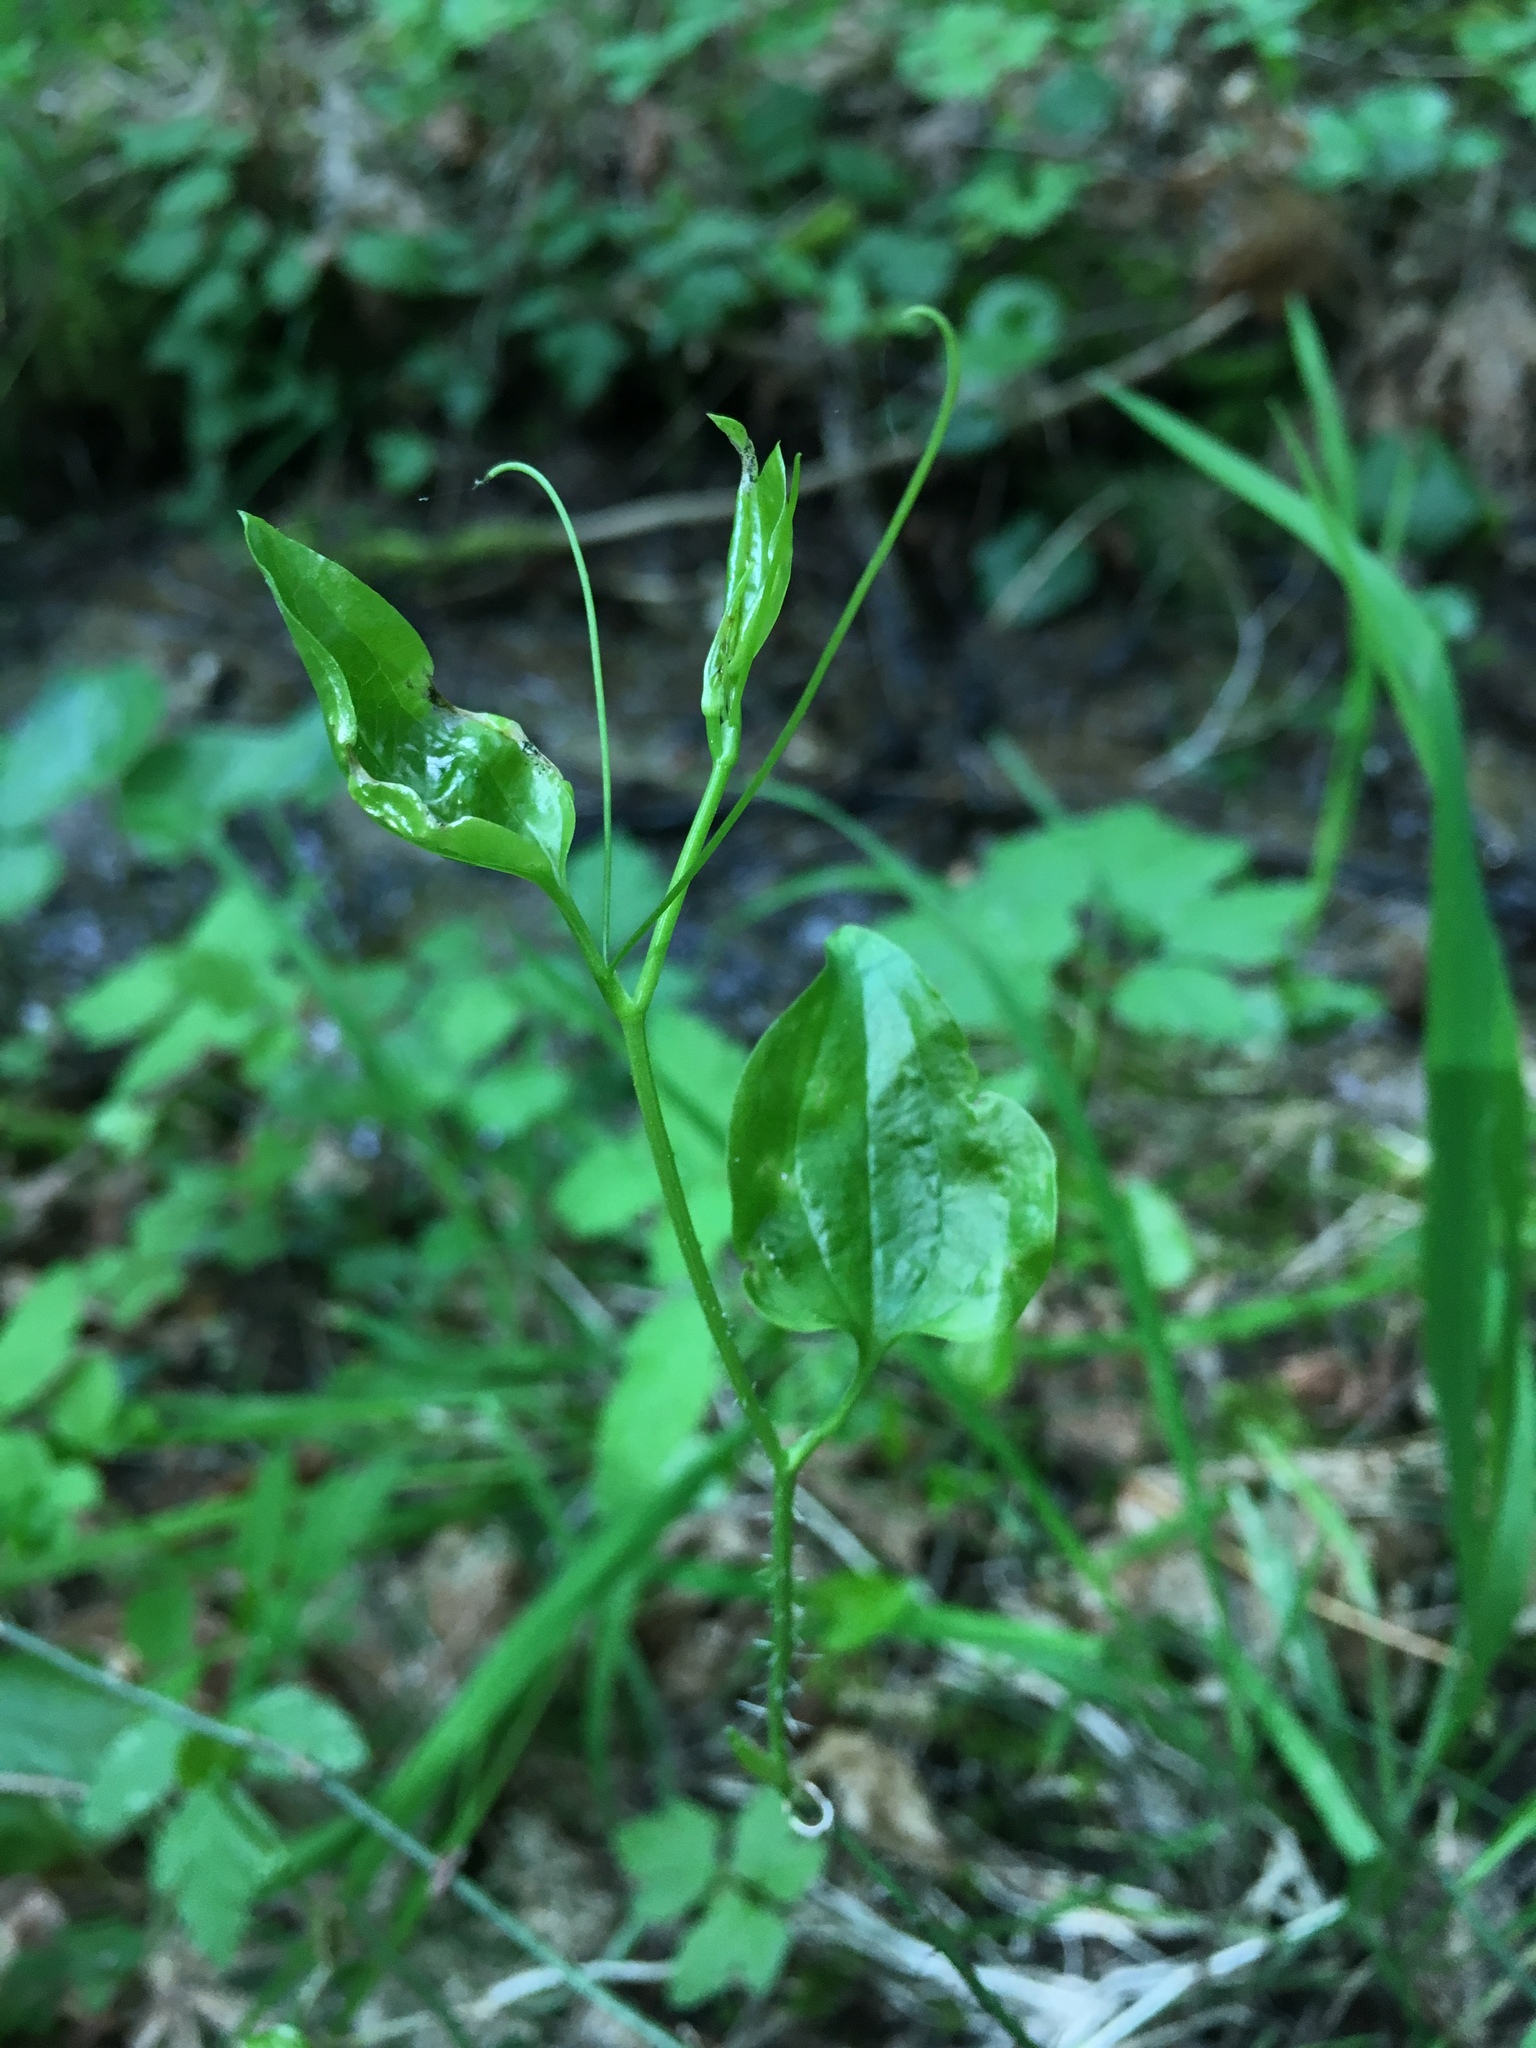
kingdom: Plantae
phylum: Tracheophyta
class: Liliopsida
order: Liliales
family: Smilacaceae
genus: Smilax
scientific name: Smilax californica
